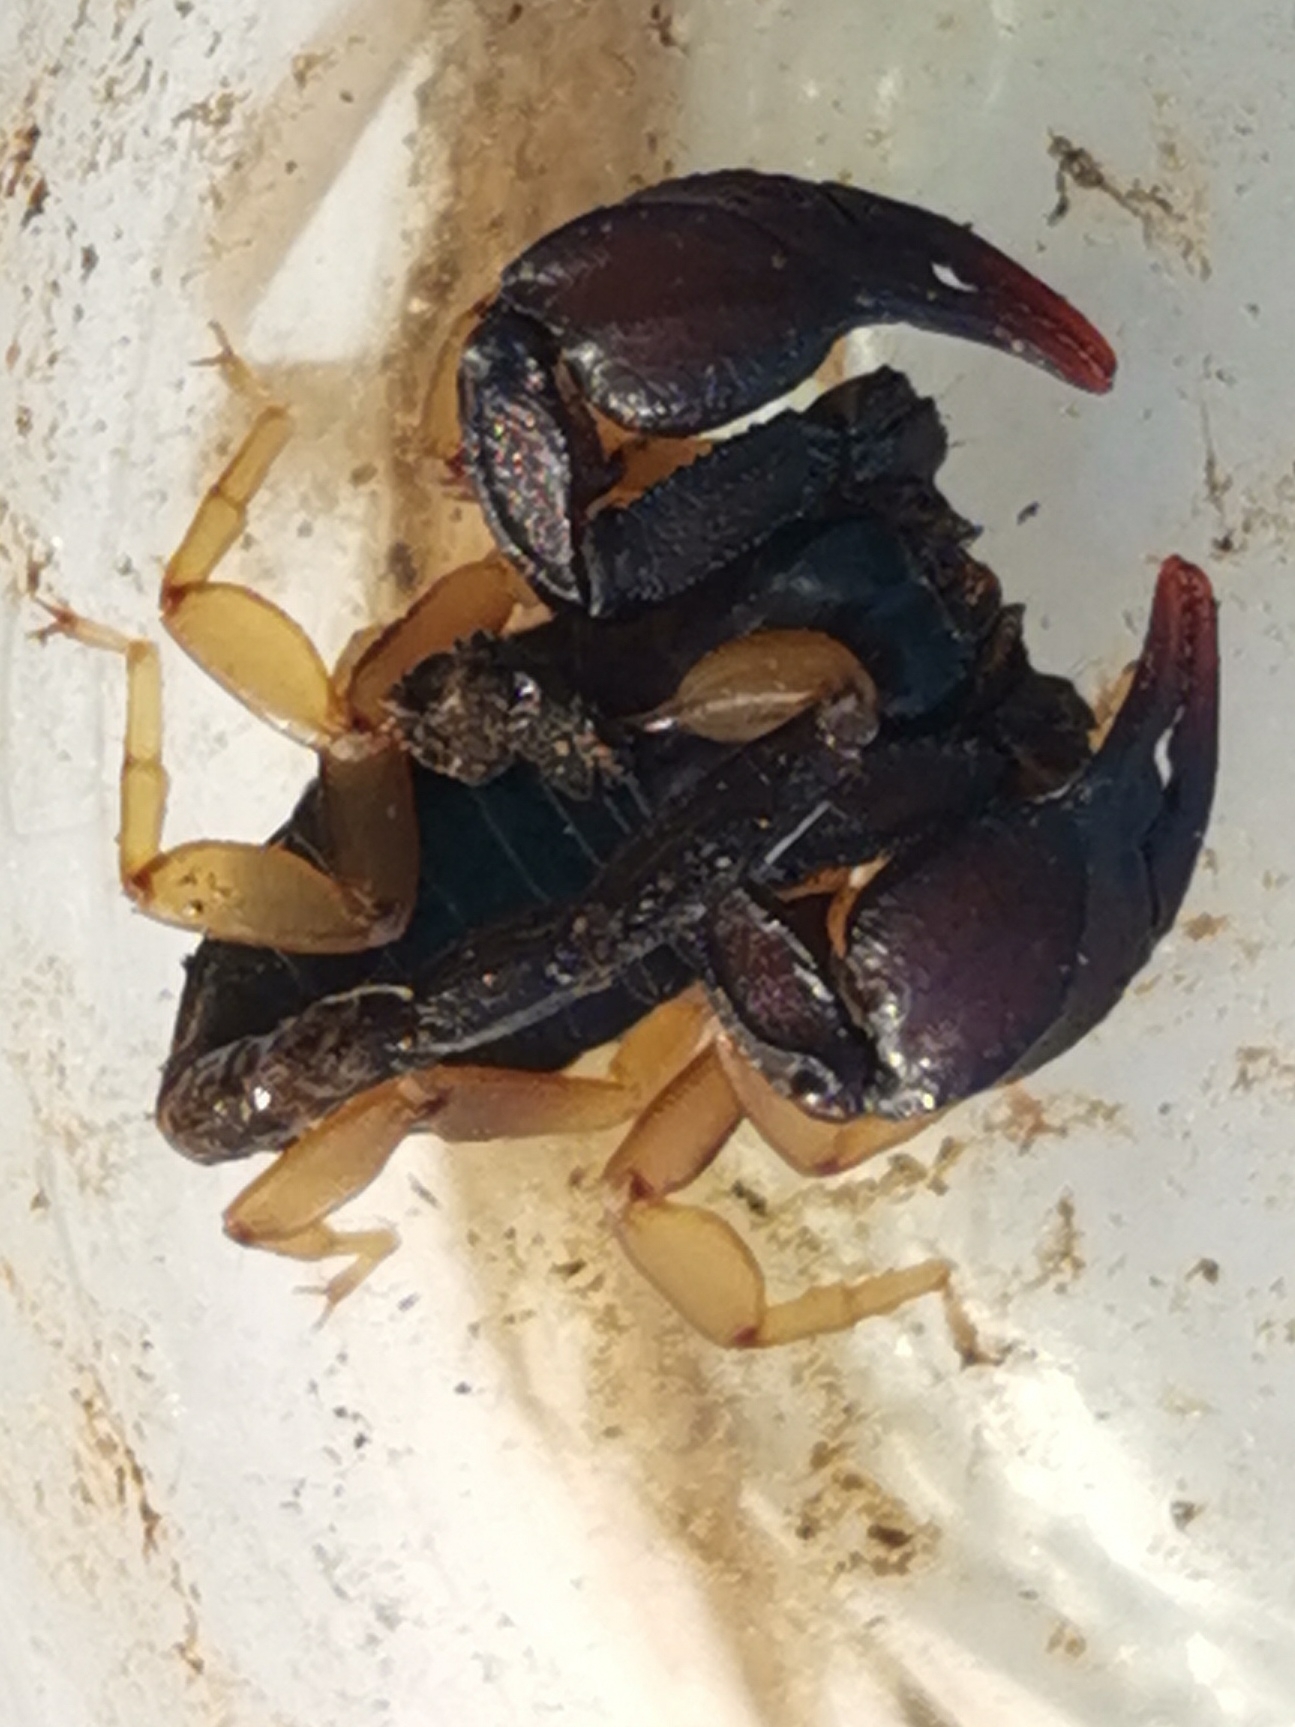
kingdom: Animalia
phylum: Arthropoda
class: Arachnida
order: Scorpiones
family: Euscorpiidae
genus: Euscorpius
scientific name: Euscorpius flavicaudis
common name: European yellow-tailed scorpion
